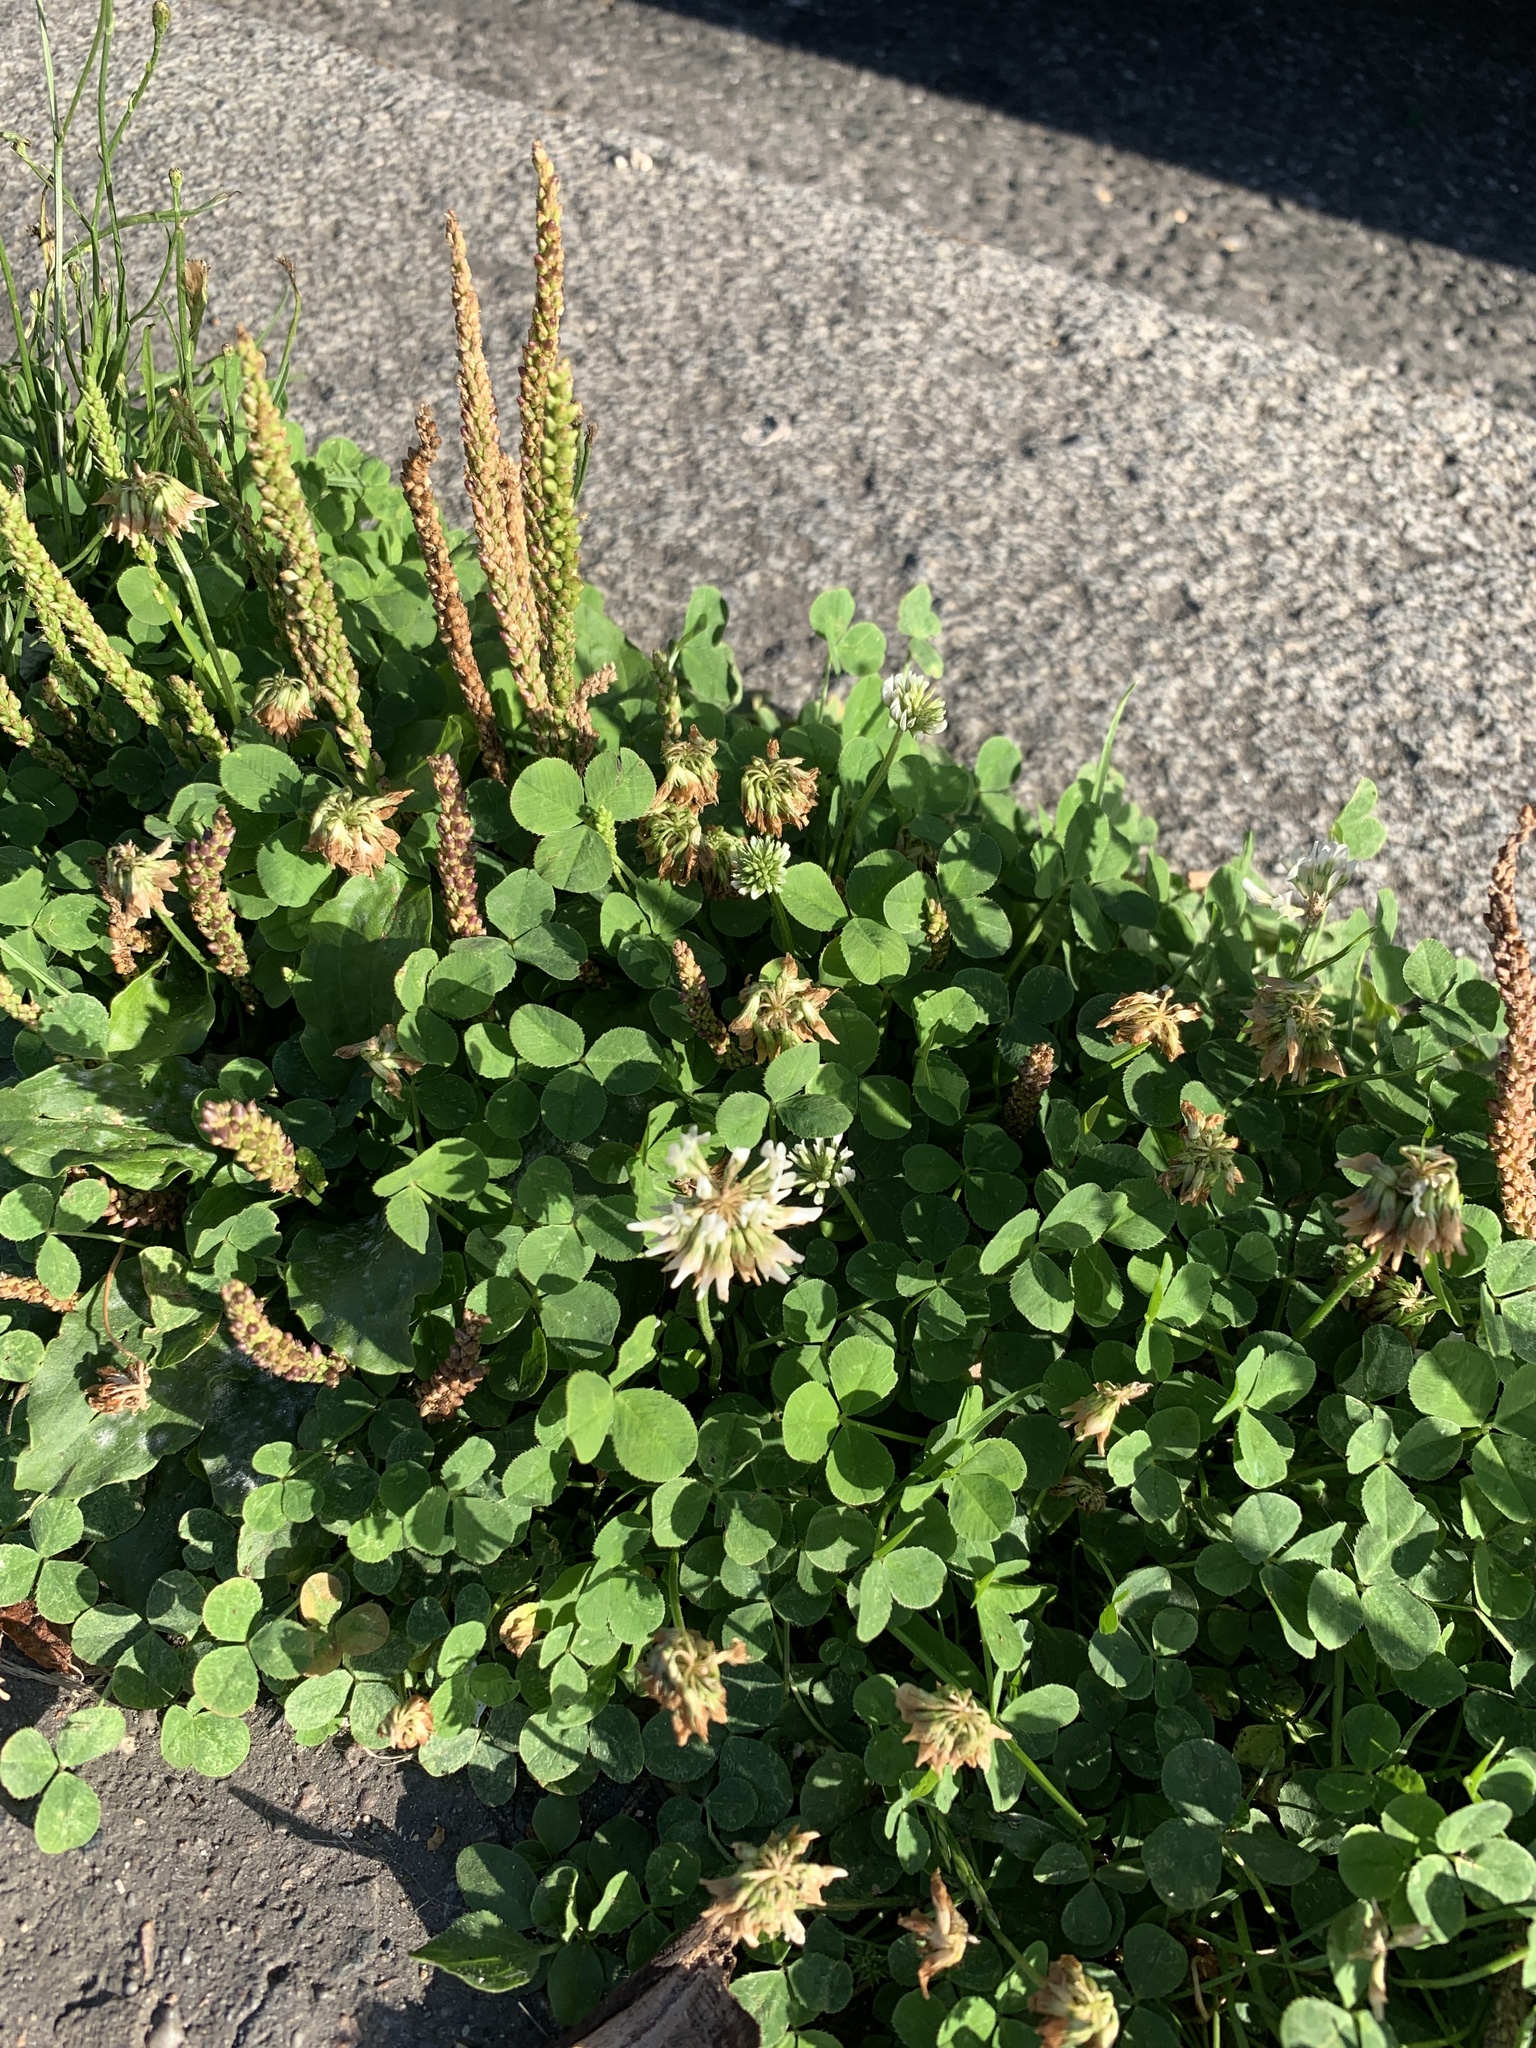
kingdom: Plantae
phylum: Tracheophyta
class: Magnoliopsida
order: Fabales
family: Fabaceae
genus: Trifolium
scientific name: Trifolium repens
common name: White clover
